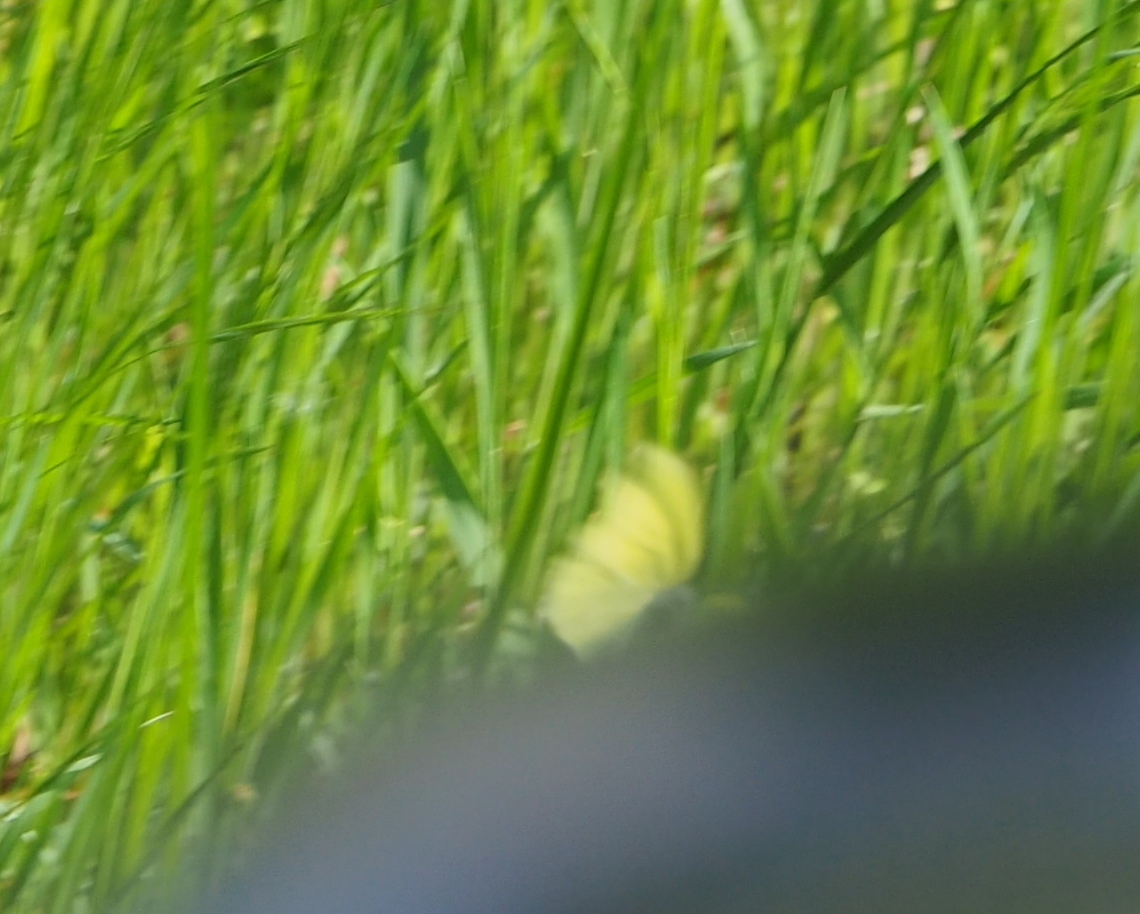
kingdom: Animalia
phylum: Arthropoda
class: Insecta
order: Lepidoptera
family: Pieridae
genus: Gonepteryx
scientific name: Gonepteryx rhamni
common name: Brimstone
